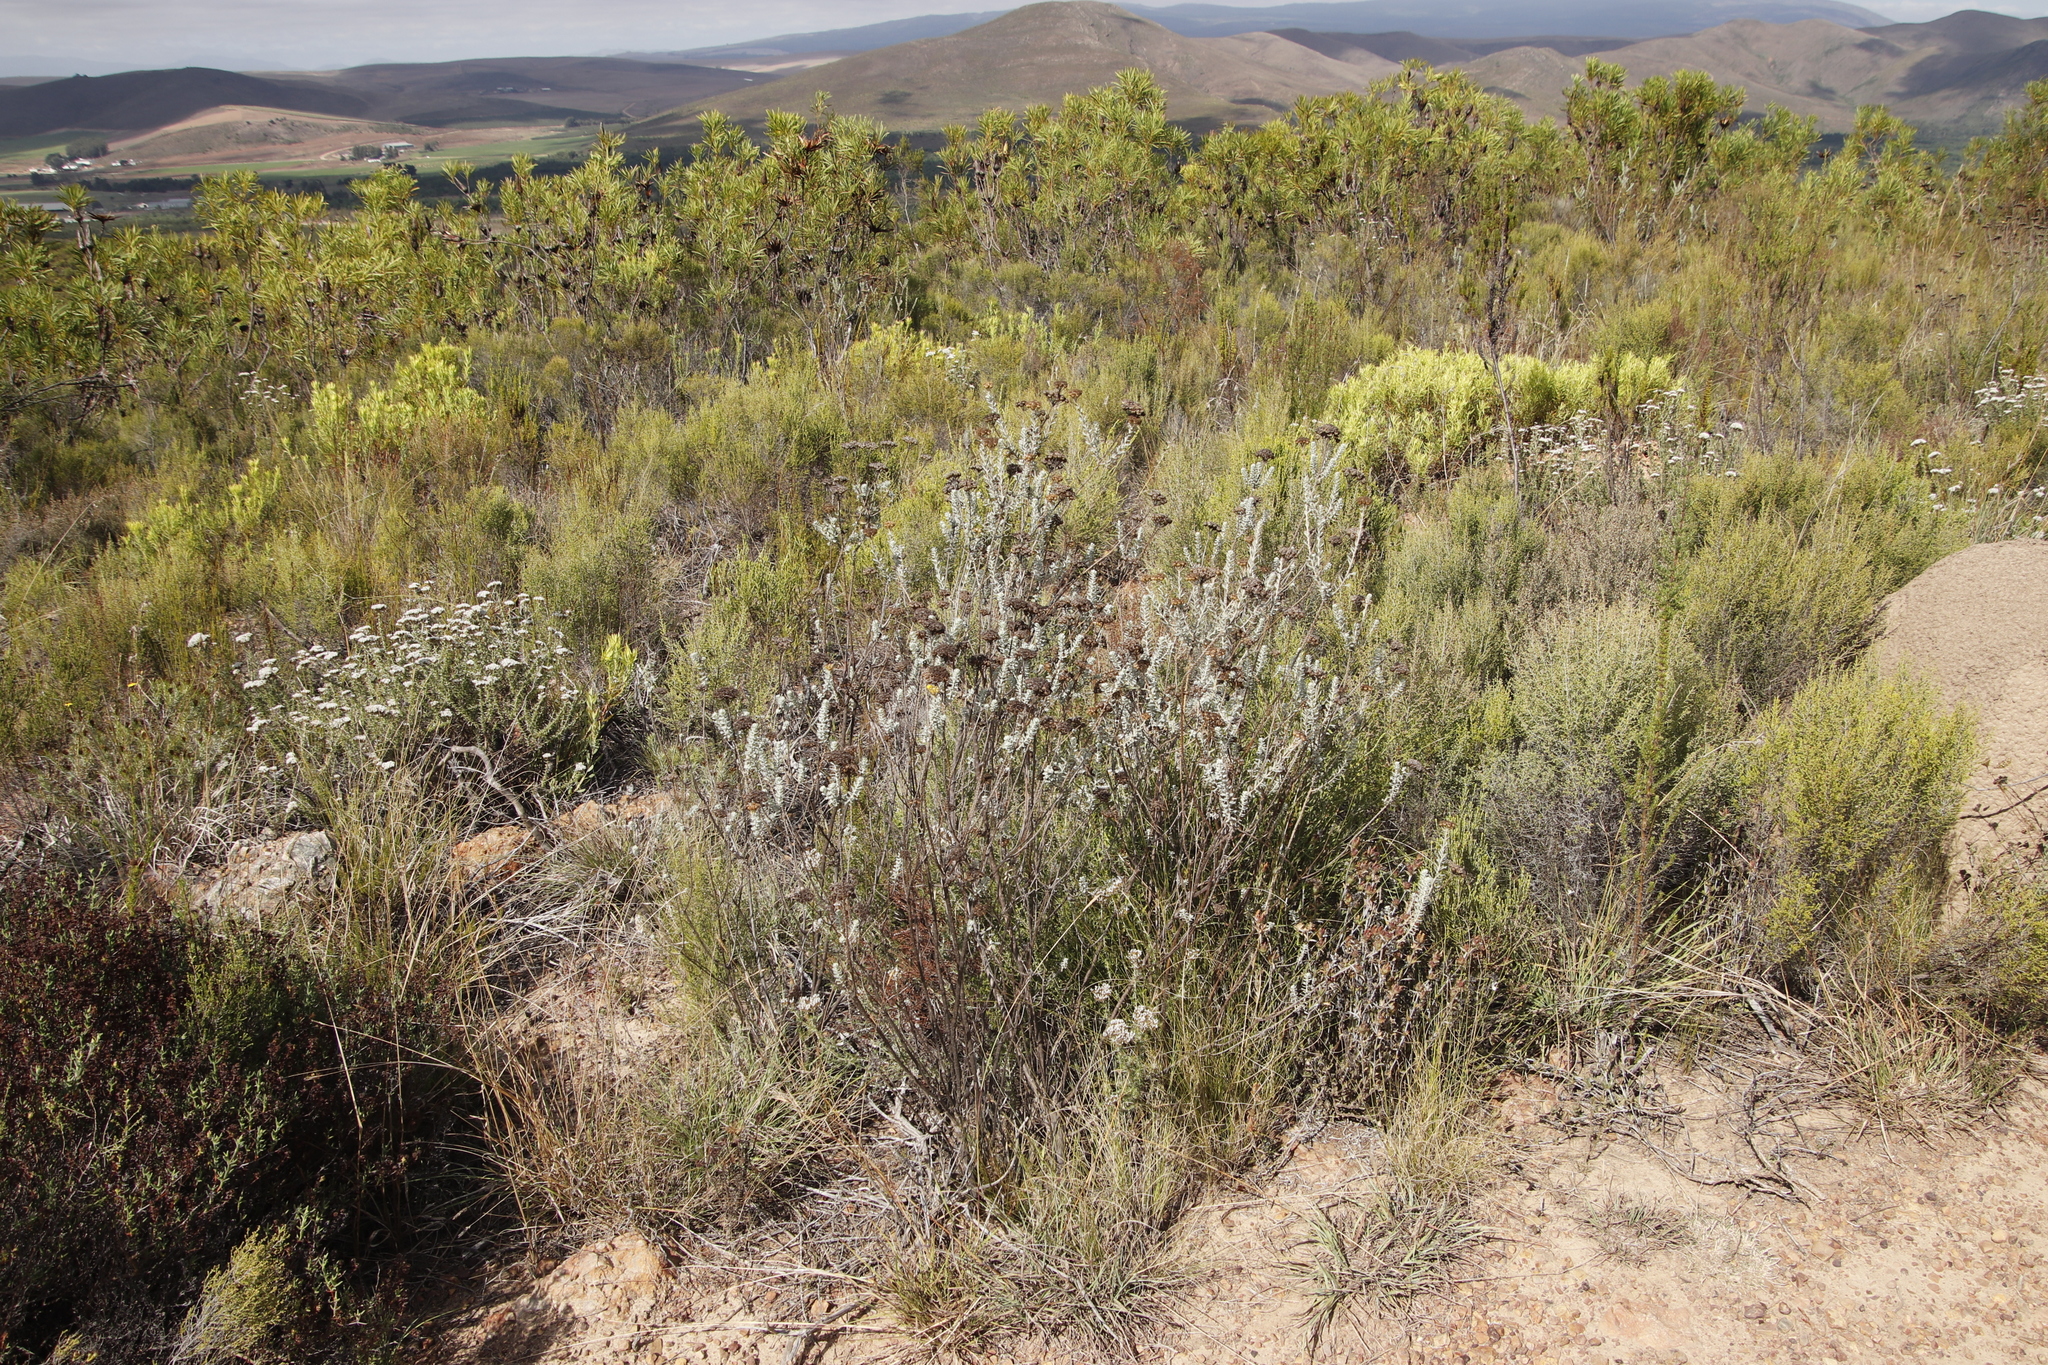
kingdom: Plantae
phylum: Tracheophyta
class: Magnoliopsida
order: Proteales
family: Proteaceae
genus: Protea
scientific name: Protea repens
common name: Sugarbush
